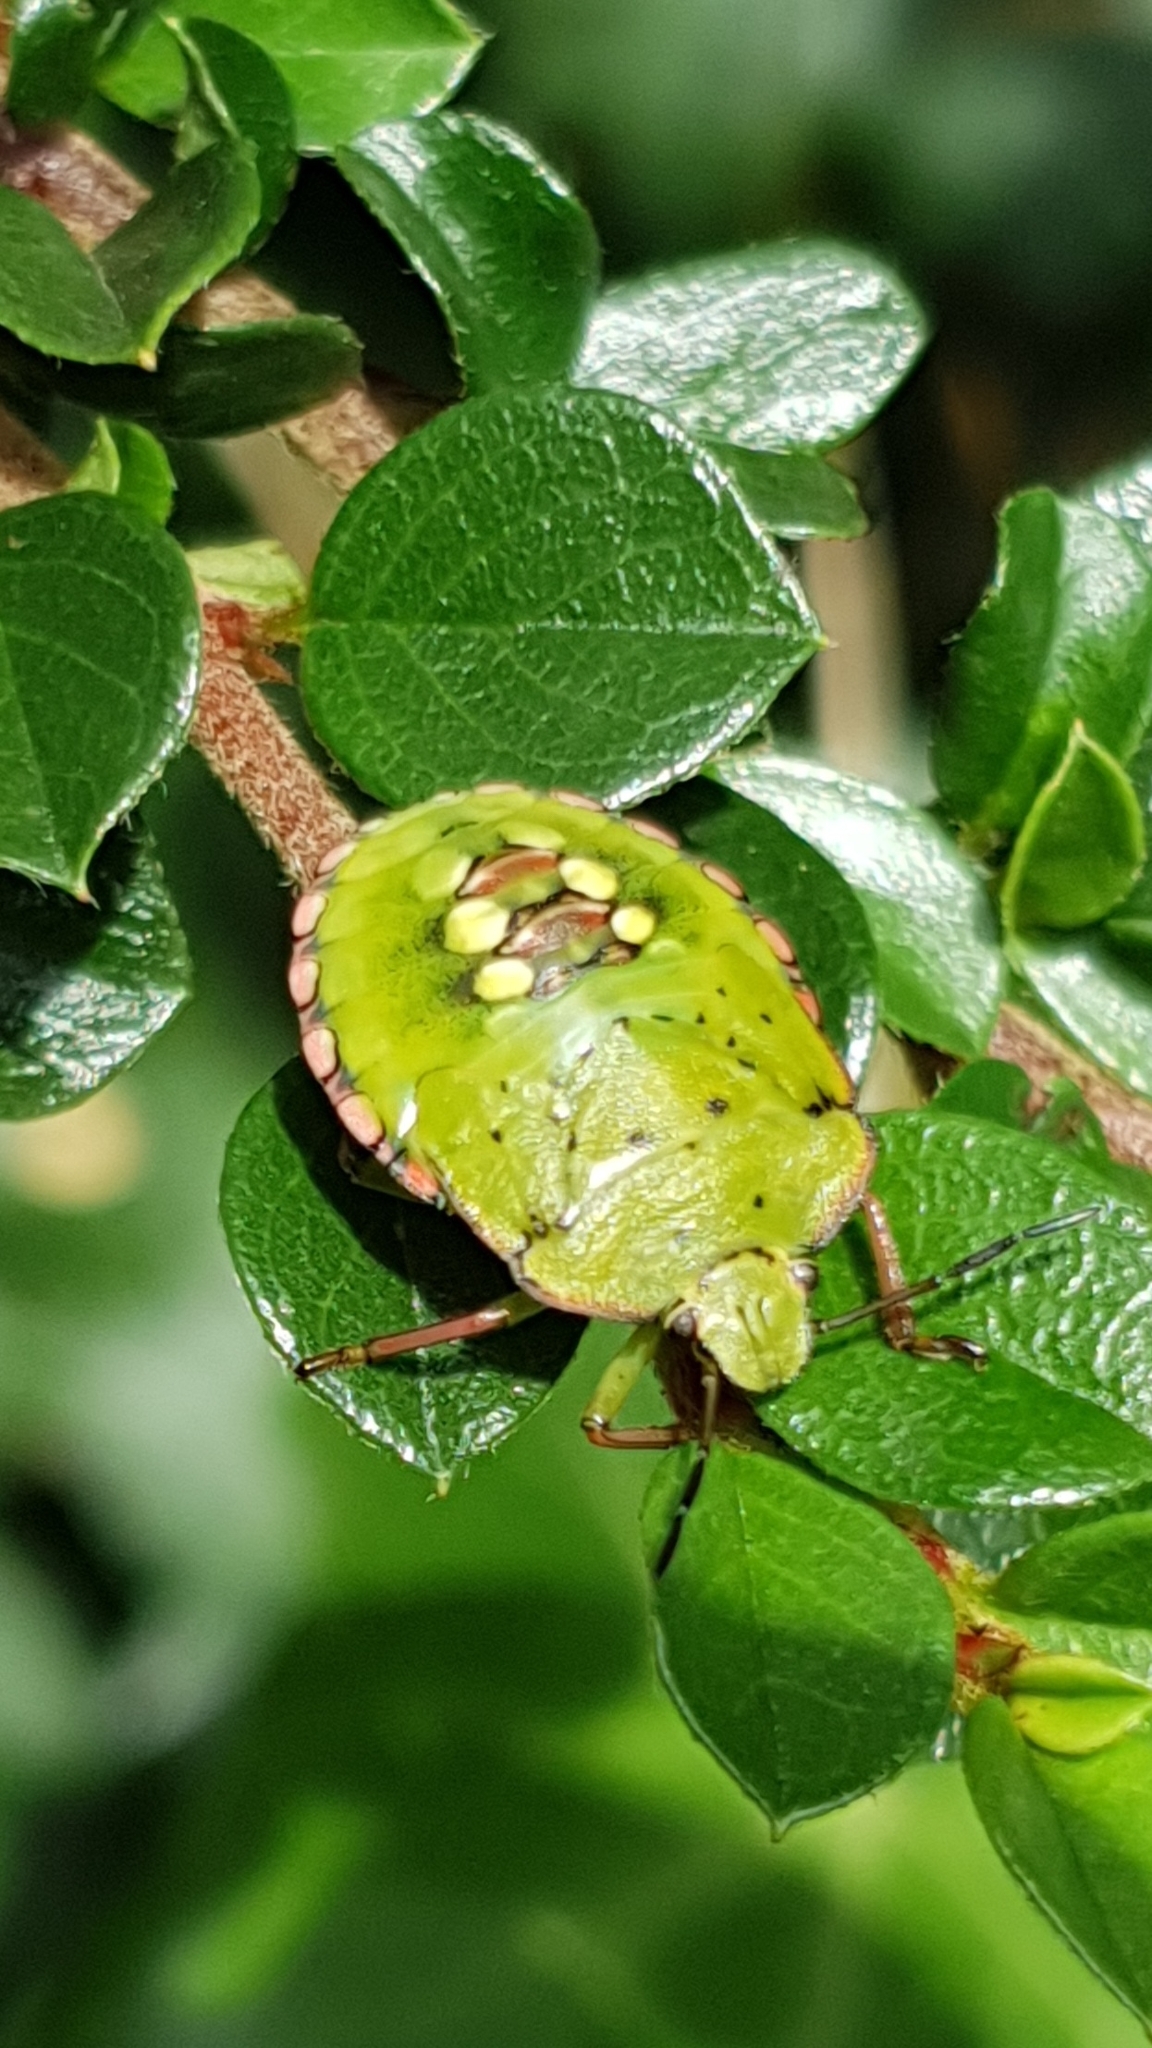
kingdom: Animalia
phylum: Arthropoda
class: Insecta
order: Hemiptera
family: Pentatomidae
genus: Nezara
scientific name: Nezara viridula
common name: Southern green stink bug
